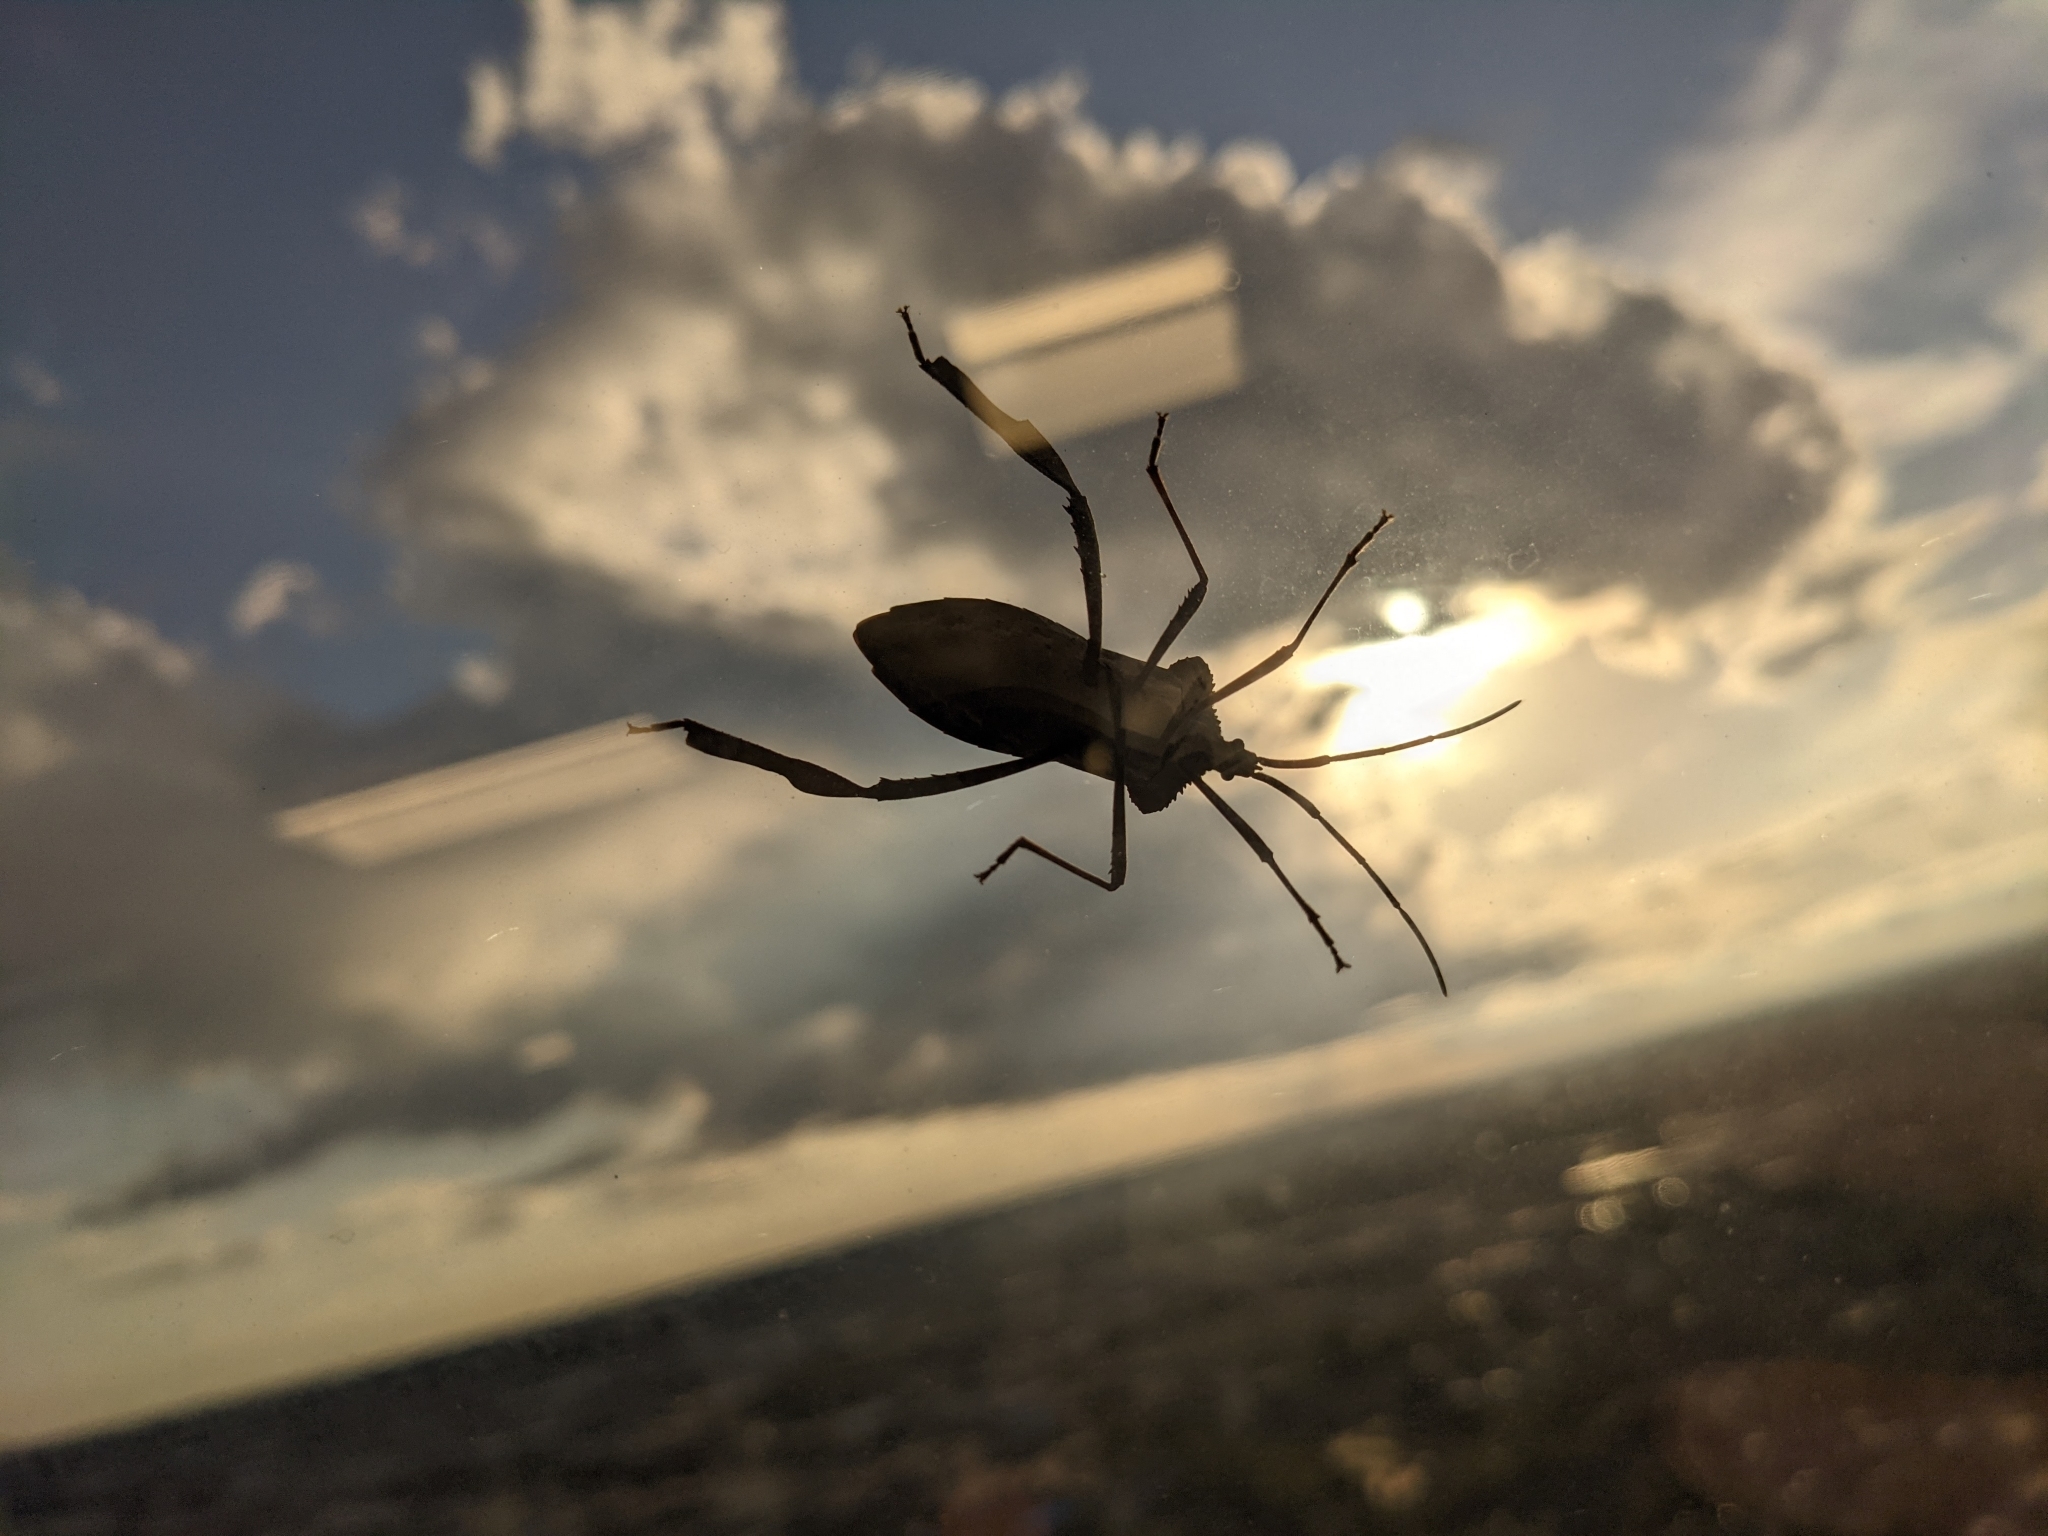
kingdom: Animalia
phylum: Arthropoda
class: Insecta
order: Hemiptera
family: Coreidae
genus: Acanthocephala
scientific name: Acanthocephala declivis
